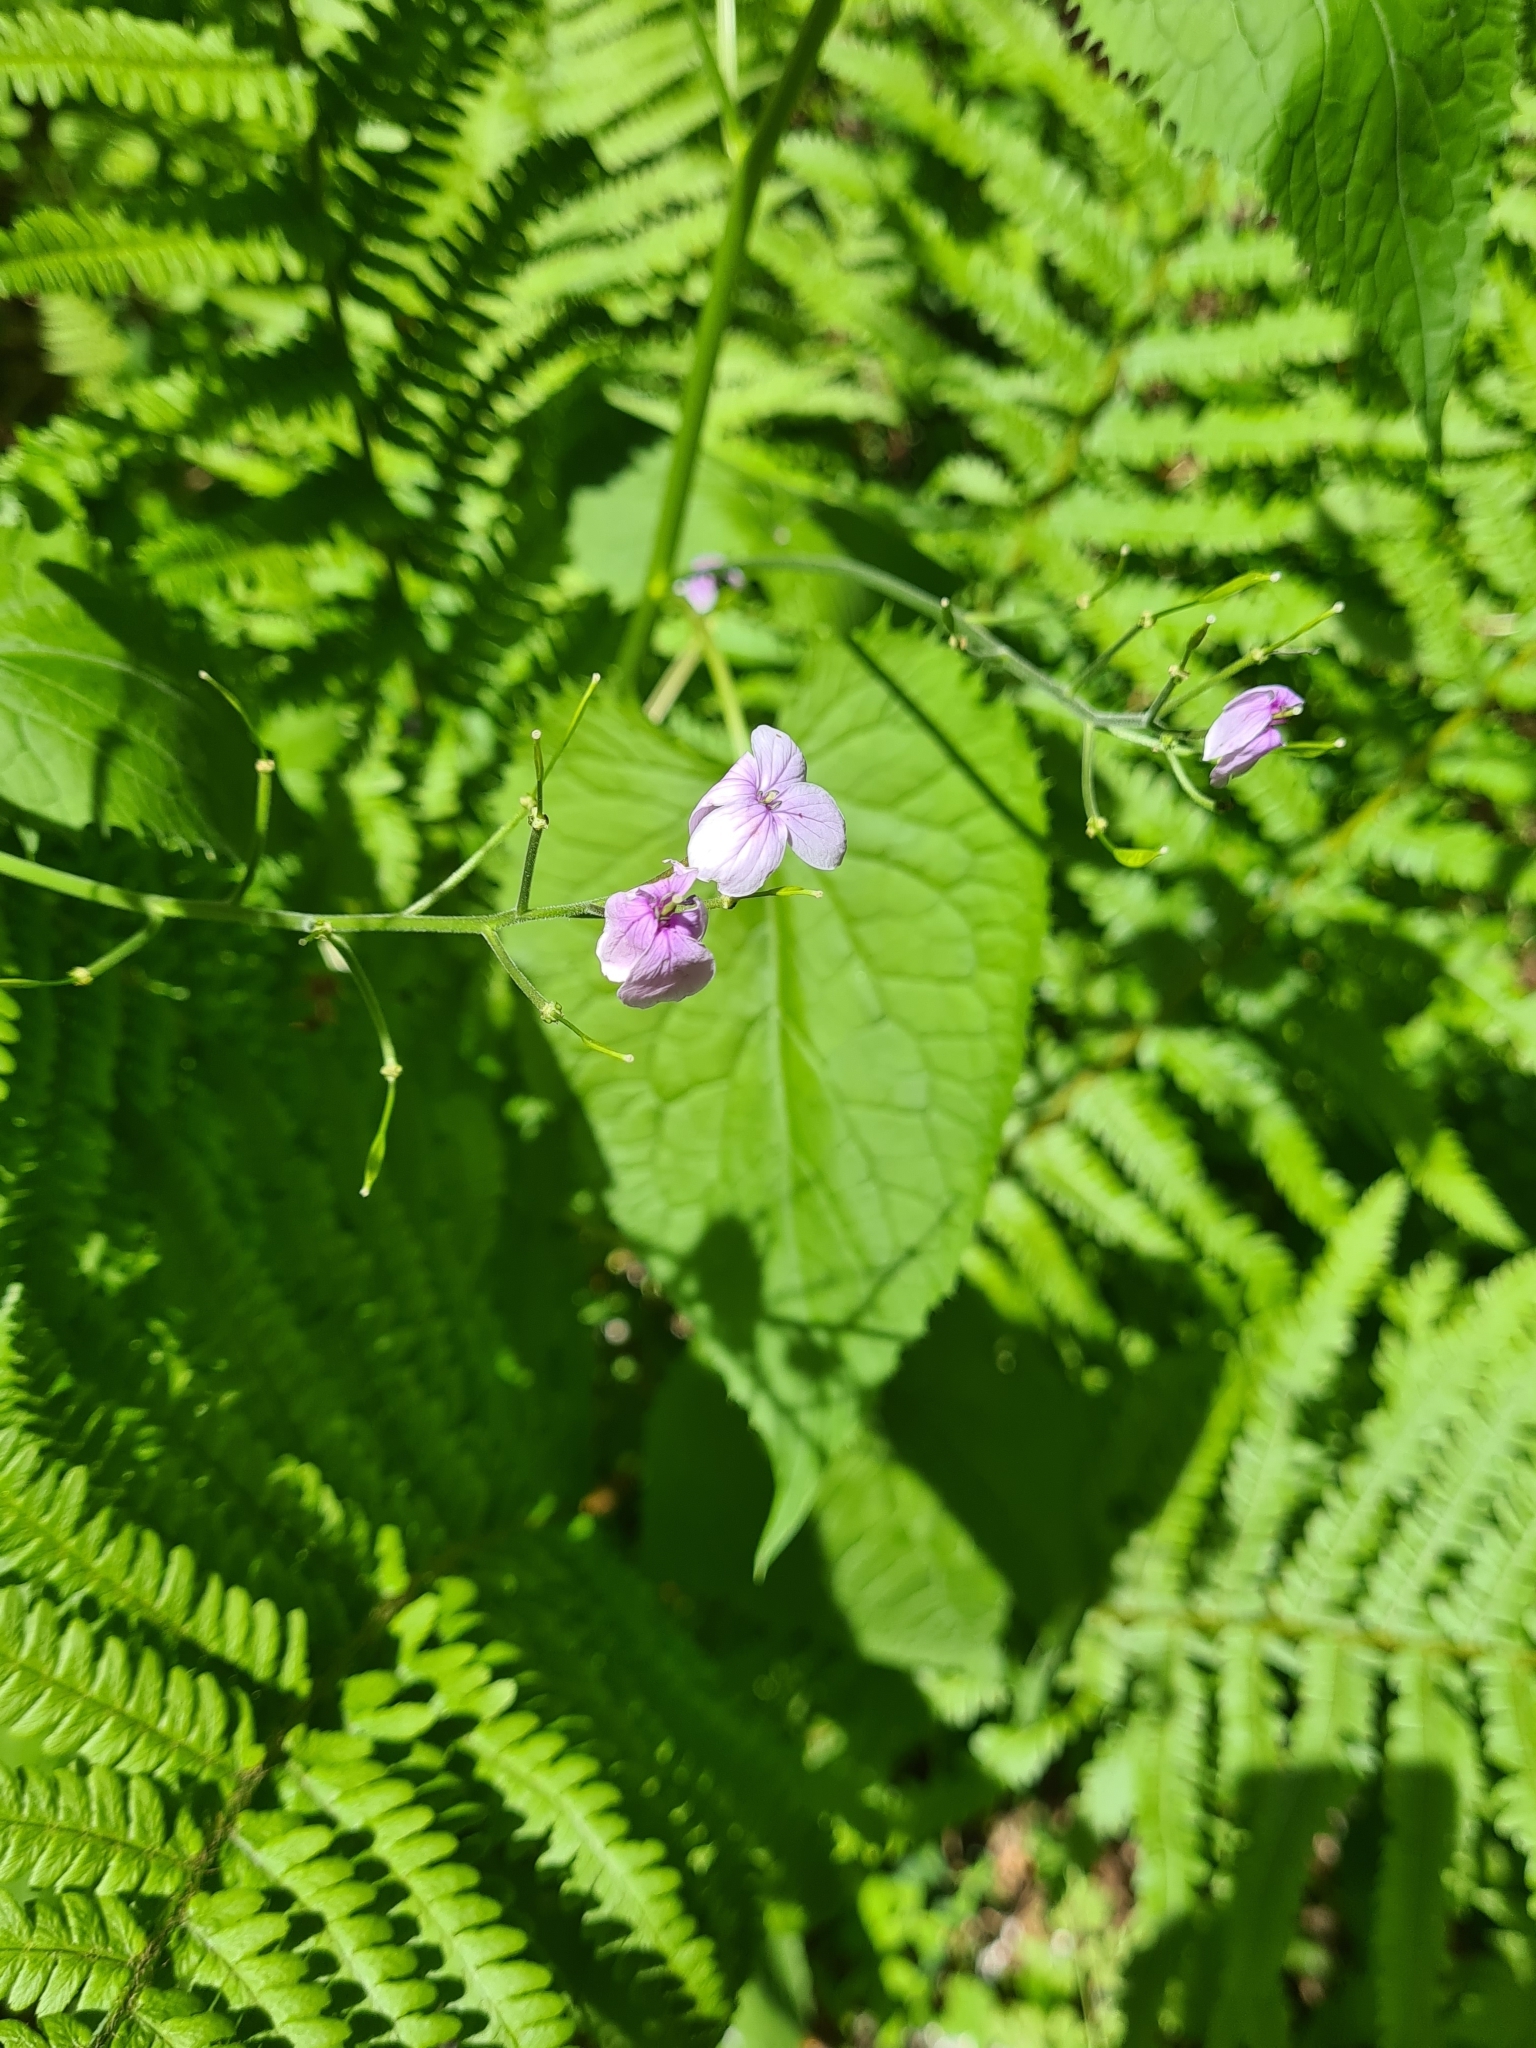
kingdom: Plantae
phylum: Tracheophyta
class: Magnoliopsida
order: Brassicales
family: Brassicaceae
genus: Lunaria
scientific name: Lunaria rediviva
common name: Perennial honesty
